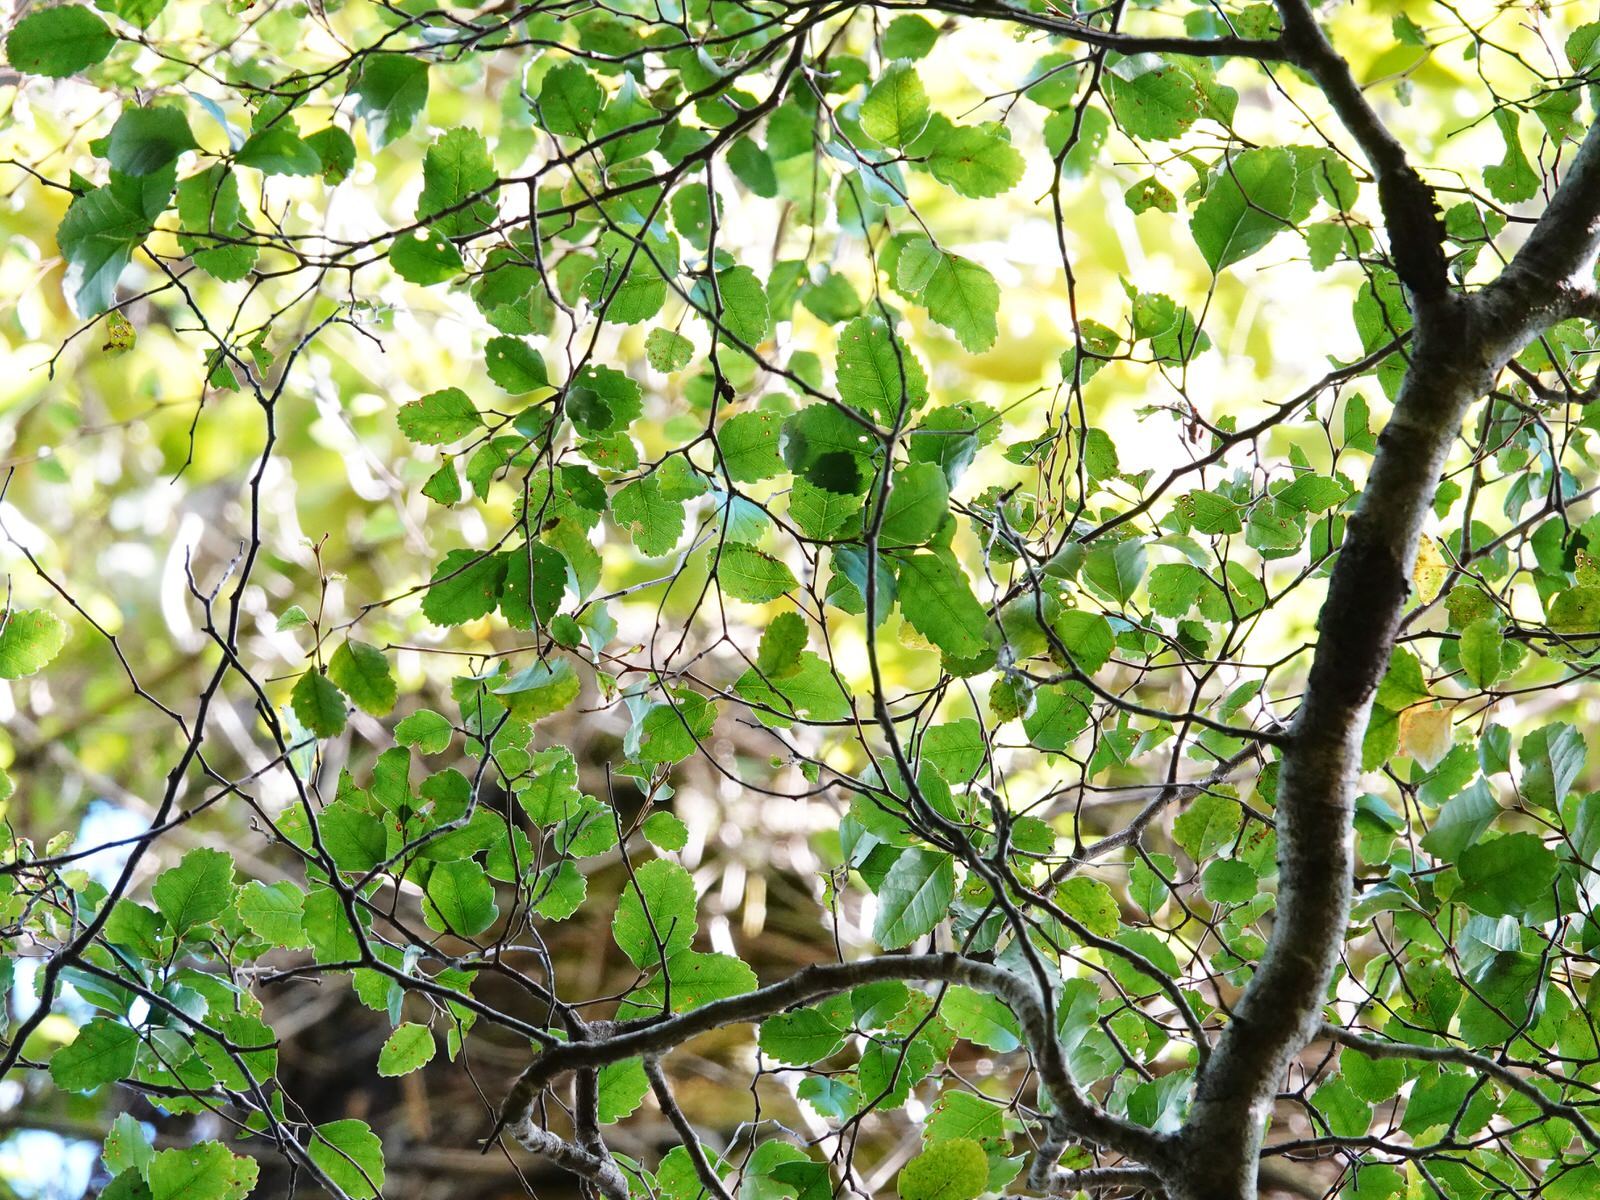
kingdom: Plantae
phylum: Tracheophyta
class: Magnoliopsida
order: Fagales
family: Nothofagaceae
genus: Nothofagus
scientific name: Nothofagus truncata
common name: Hard beech
